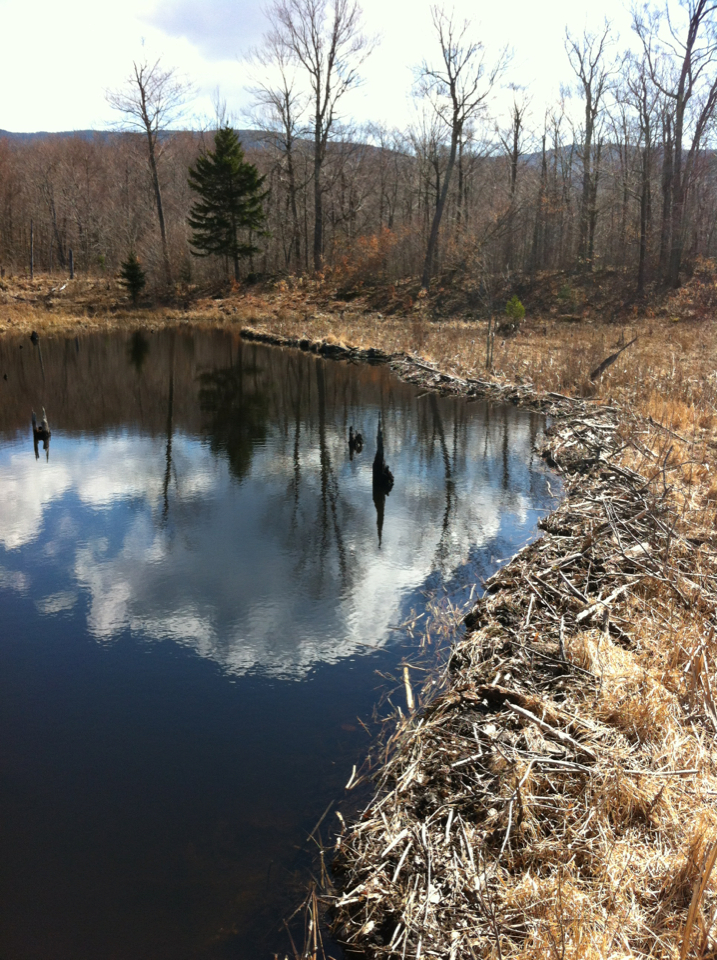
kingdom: Animalia
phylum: Chordata
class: Mammalia
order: Rodentia
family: Castoridae
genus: Castor
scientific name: Castor canadensis
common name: American beaver
